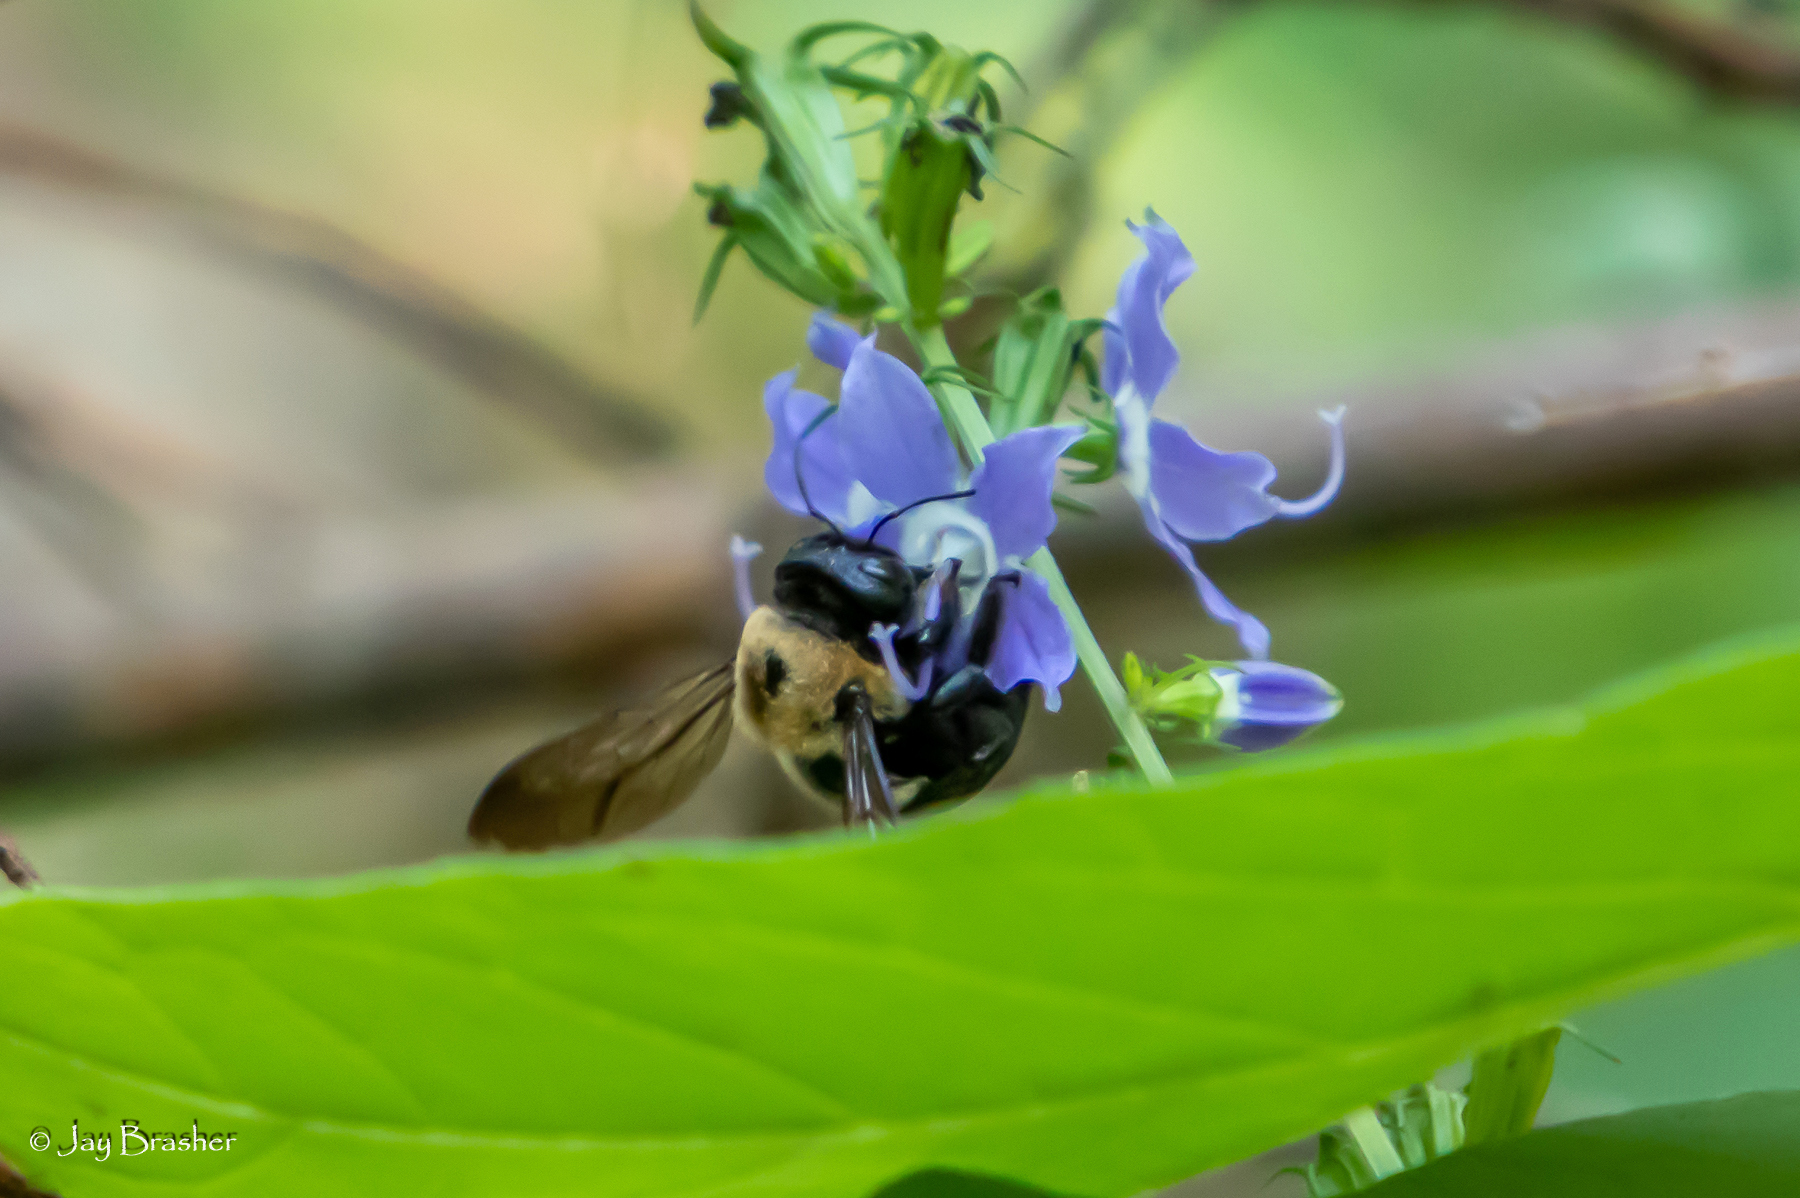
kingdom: Animalia
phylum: Arthropoda
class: Insecta
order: Hymenoptera
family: Apidae
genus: Xylocopa
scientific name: Xylocopa virginica
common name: Carpenter bee
